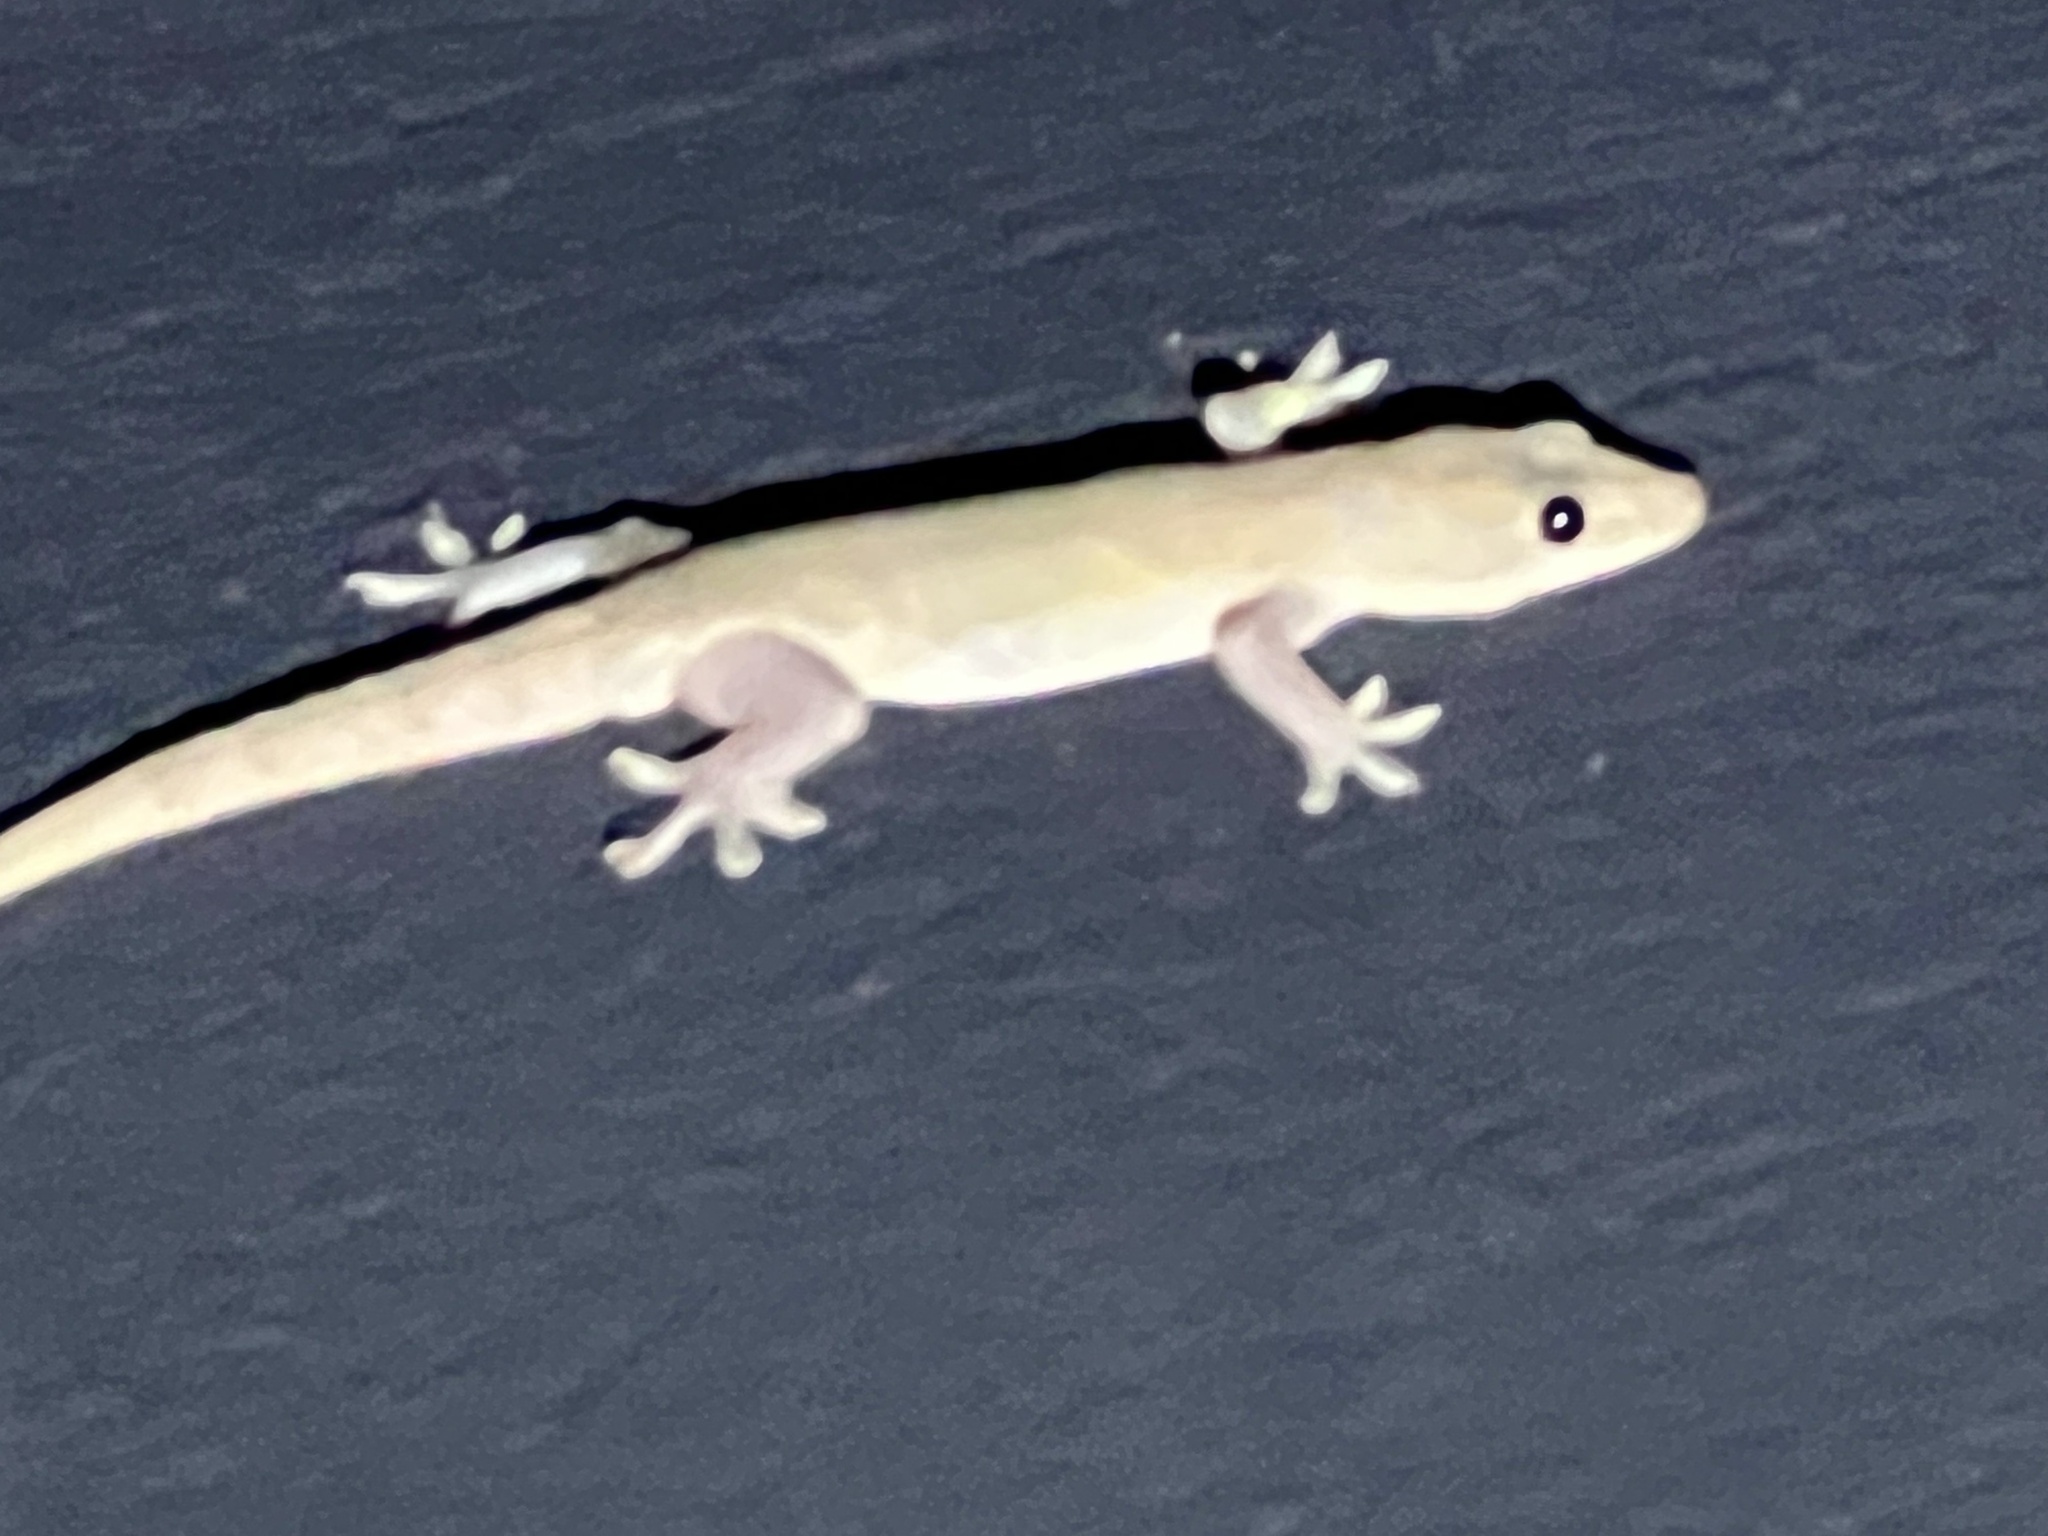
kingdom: Animalia
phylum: Chordata
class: Squamata
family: Gekkonidae
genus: Hemidactylus
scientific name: Hemidactylus frenatus
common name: Common house gecko
